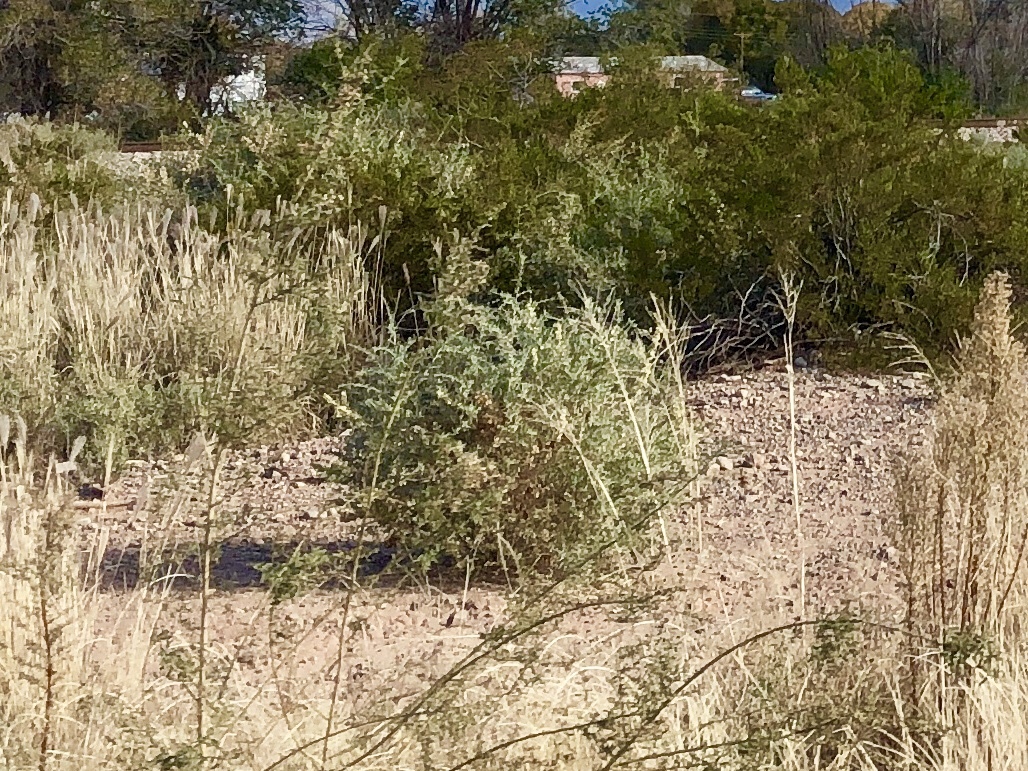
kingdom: Plantae
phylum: Tracheophyta
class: Magnoliopsida
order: Caryophyllales
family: Amaranthaceae
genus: Atriplex
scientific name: Atriplex canescens
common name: Four-wing saltbush
